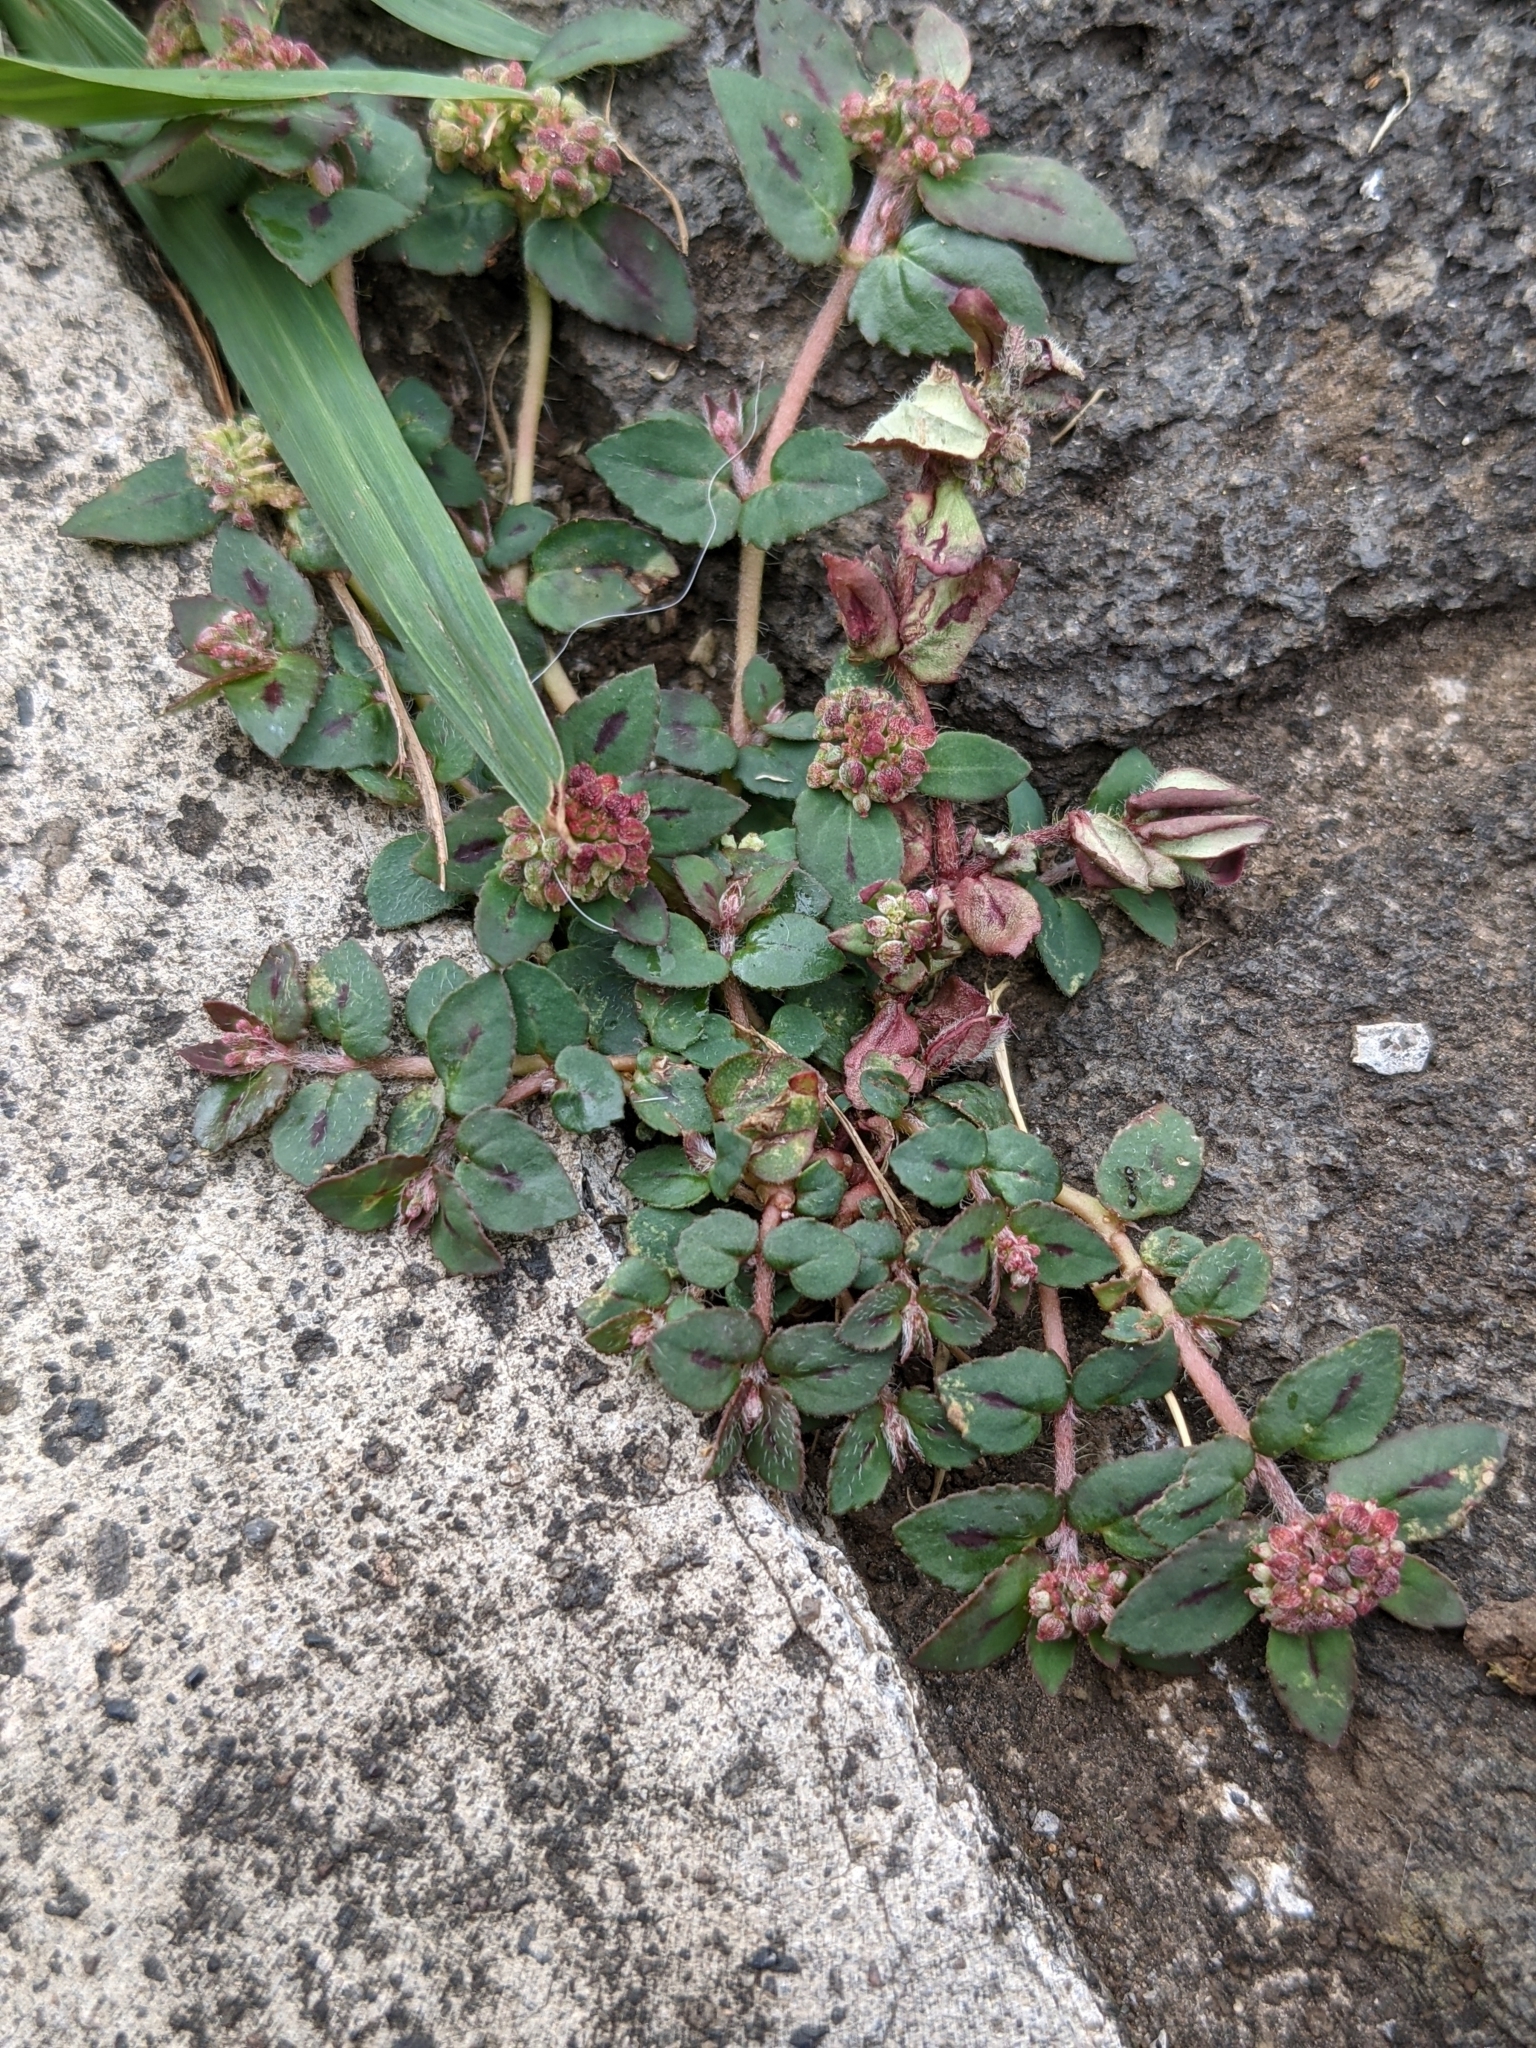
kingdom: Plantae
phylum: Tracheophyta
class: Magnoliopsida
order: Malpighiales
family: Euphorbiaceae
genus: Euphorbia
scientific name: Euphorbia ophthalmica
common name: Florida hammock sandmat
